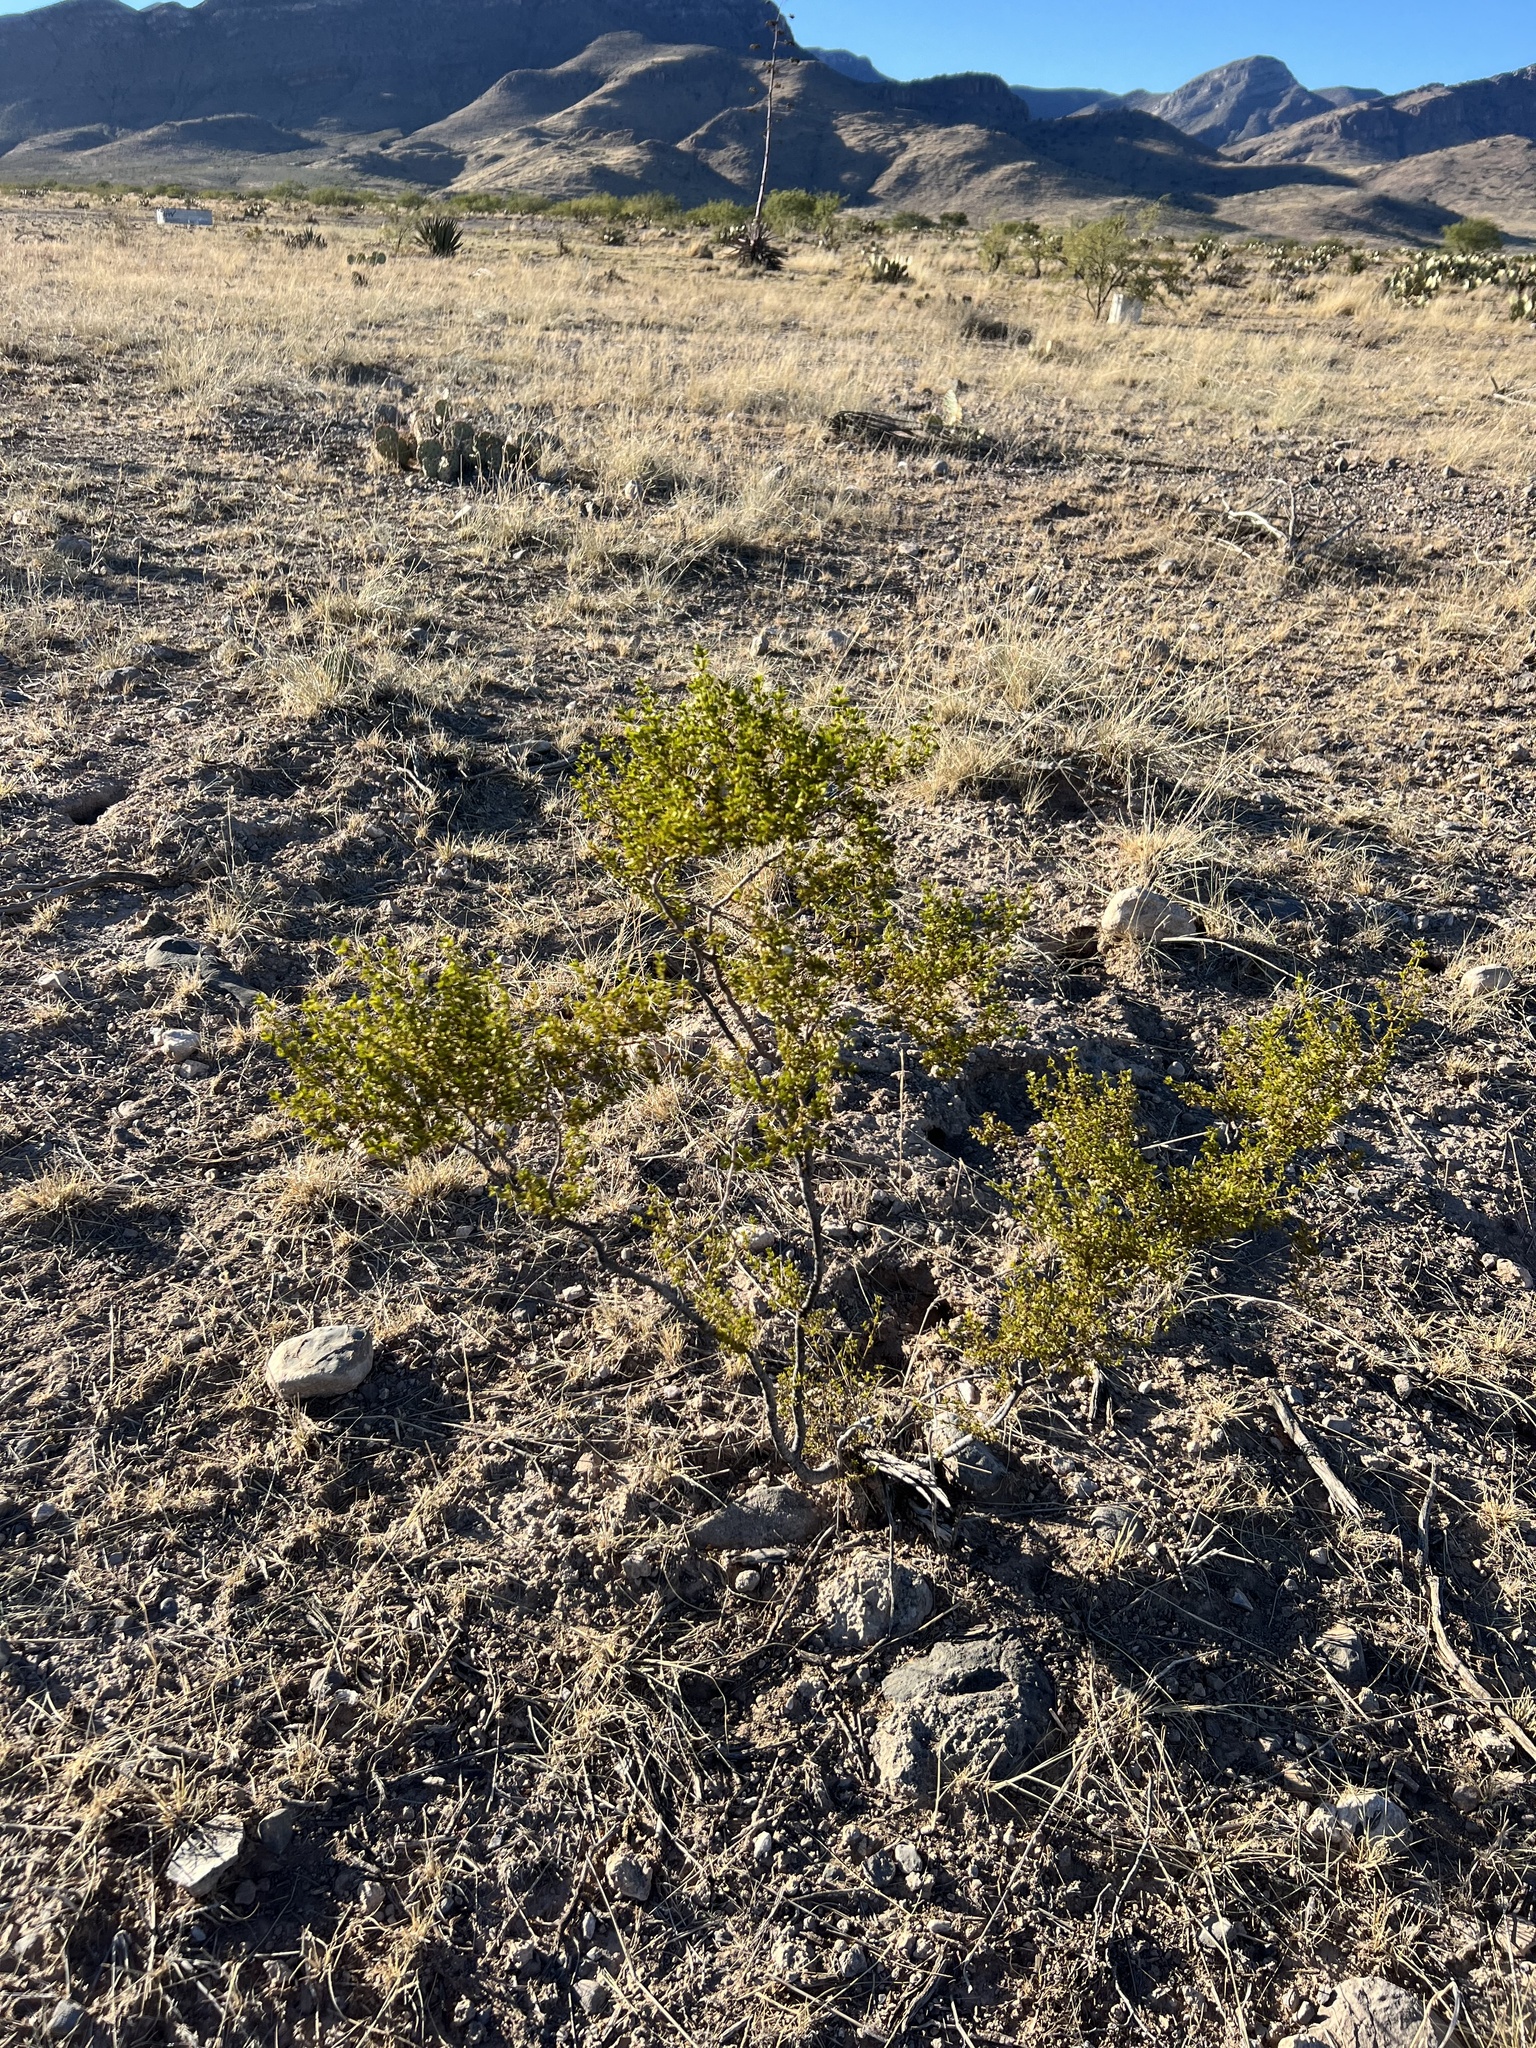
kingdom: Plantae
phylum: Tracheophyta
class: Magnoliopsida
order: Zygophyllales
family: Zygophyllaceae
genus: Larrea
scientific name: Larrea tridentata
